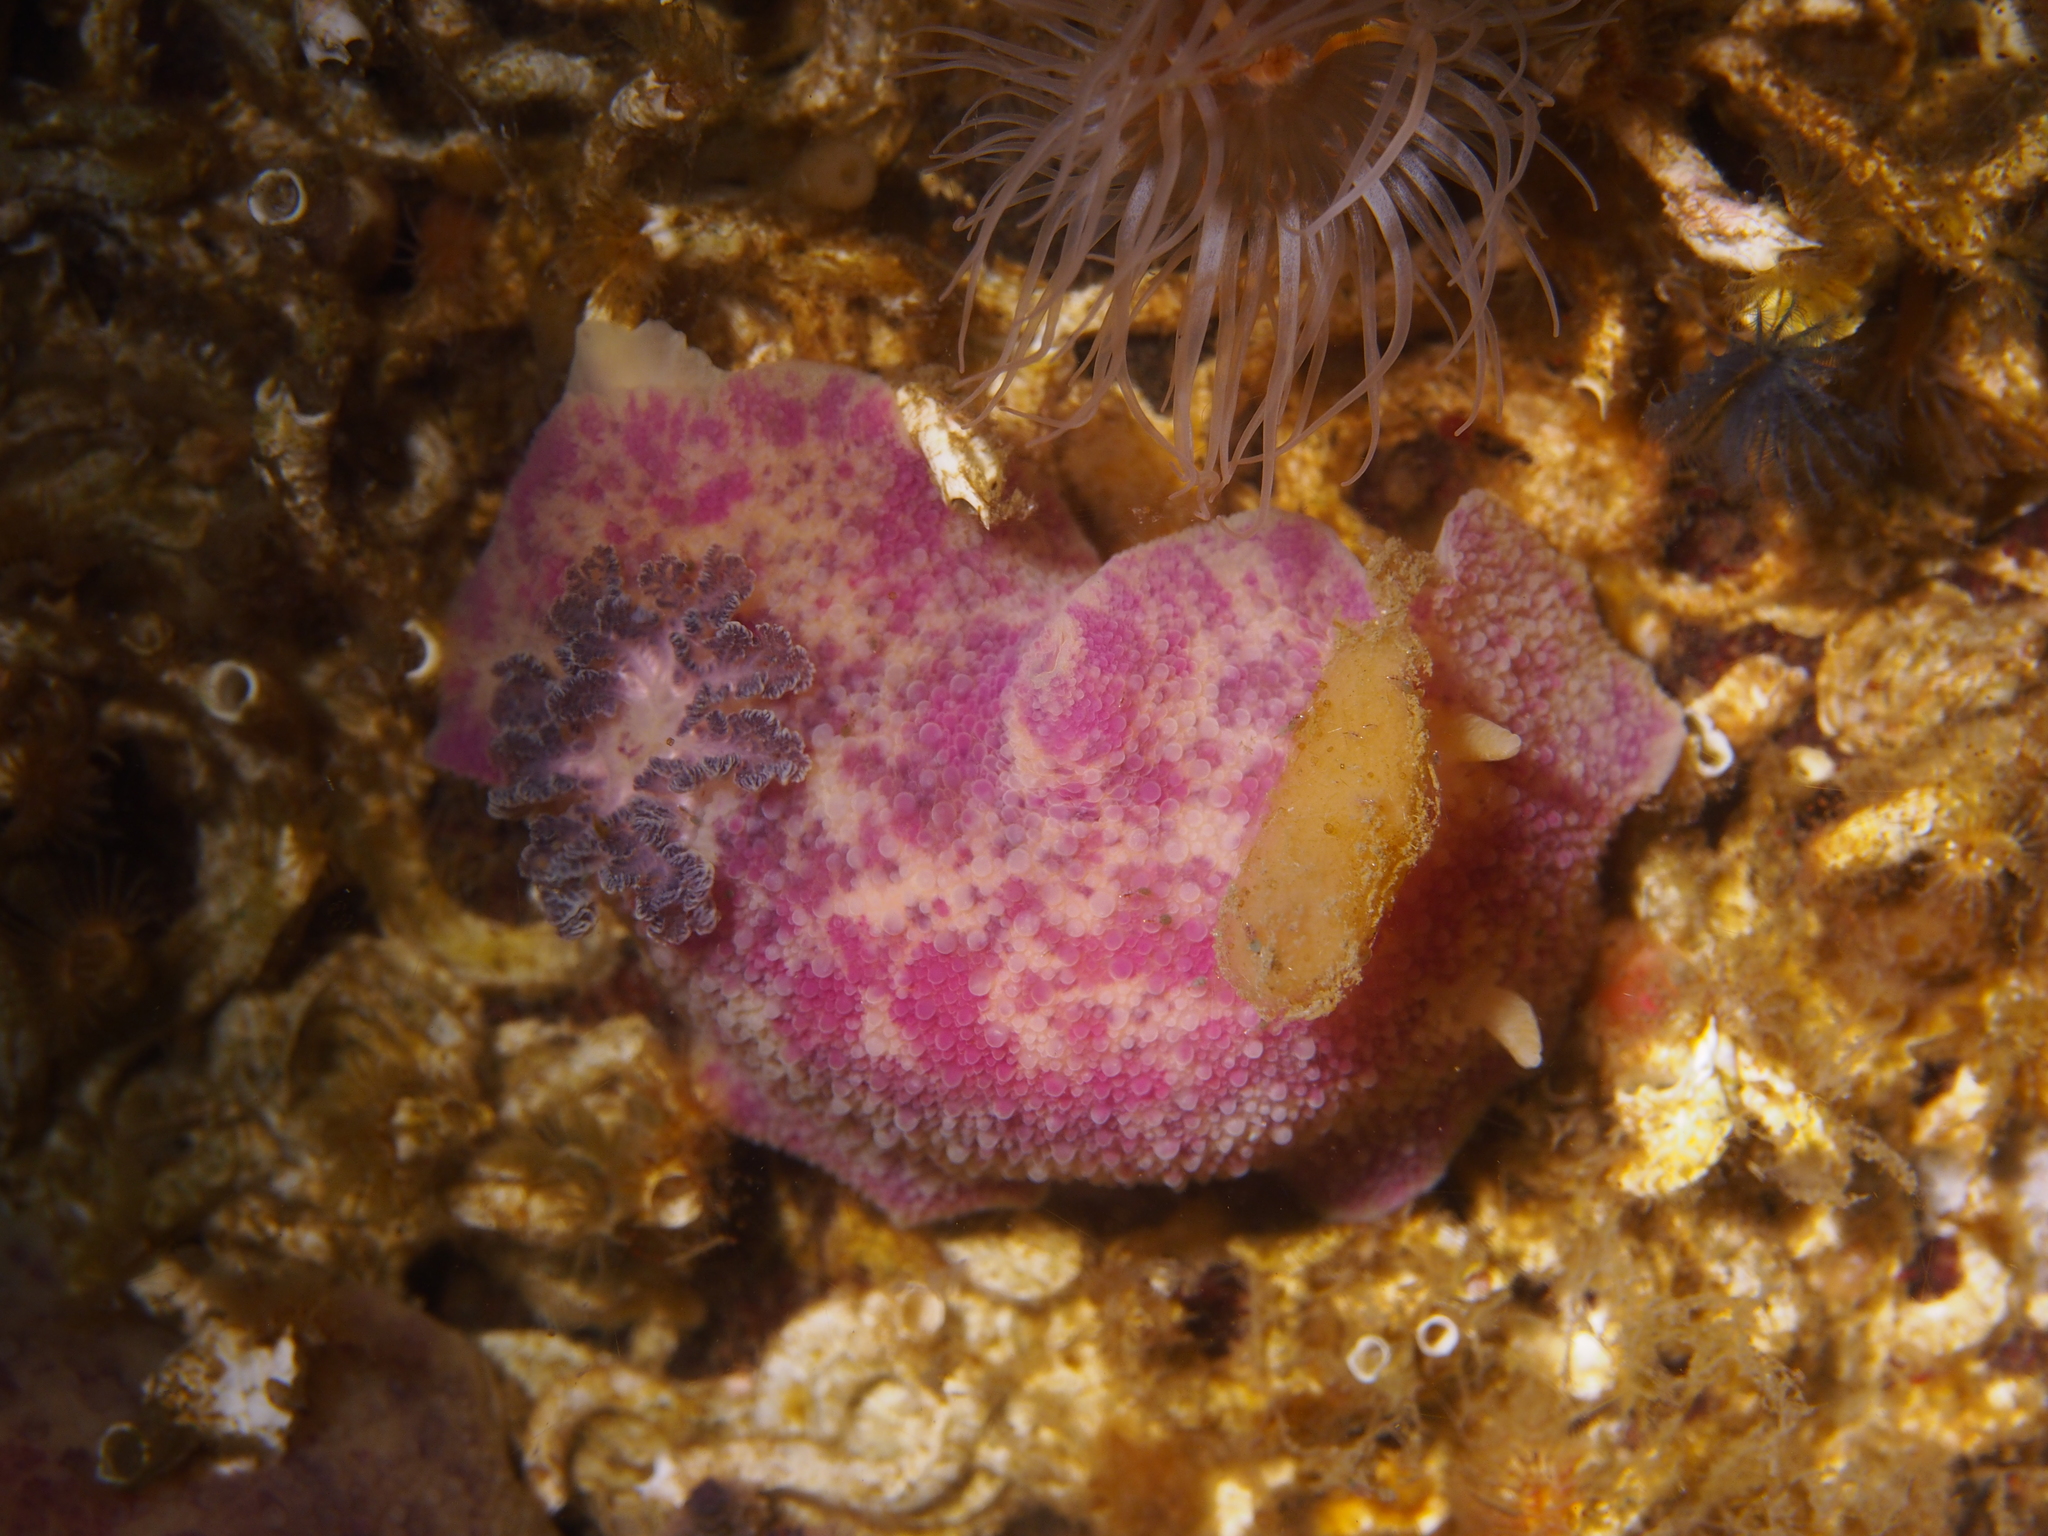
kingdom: Animalia
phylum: Mollusca
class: Gastropoda
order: Nudibranchia
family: Dorididae
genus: Doris
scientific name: Doris pseudoargus
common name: Sea lemon
